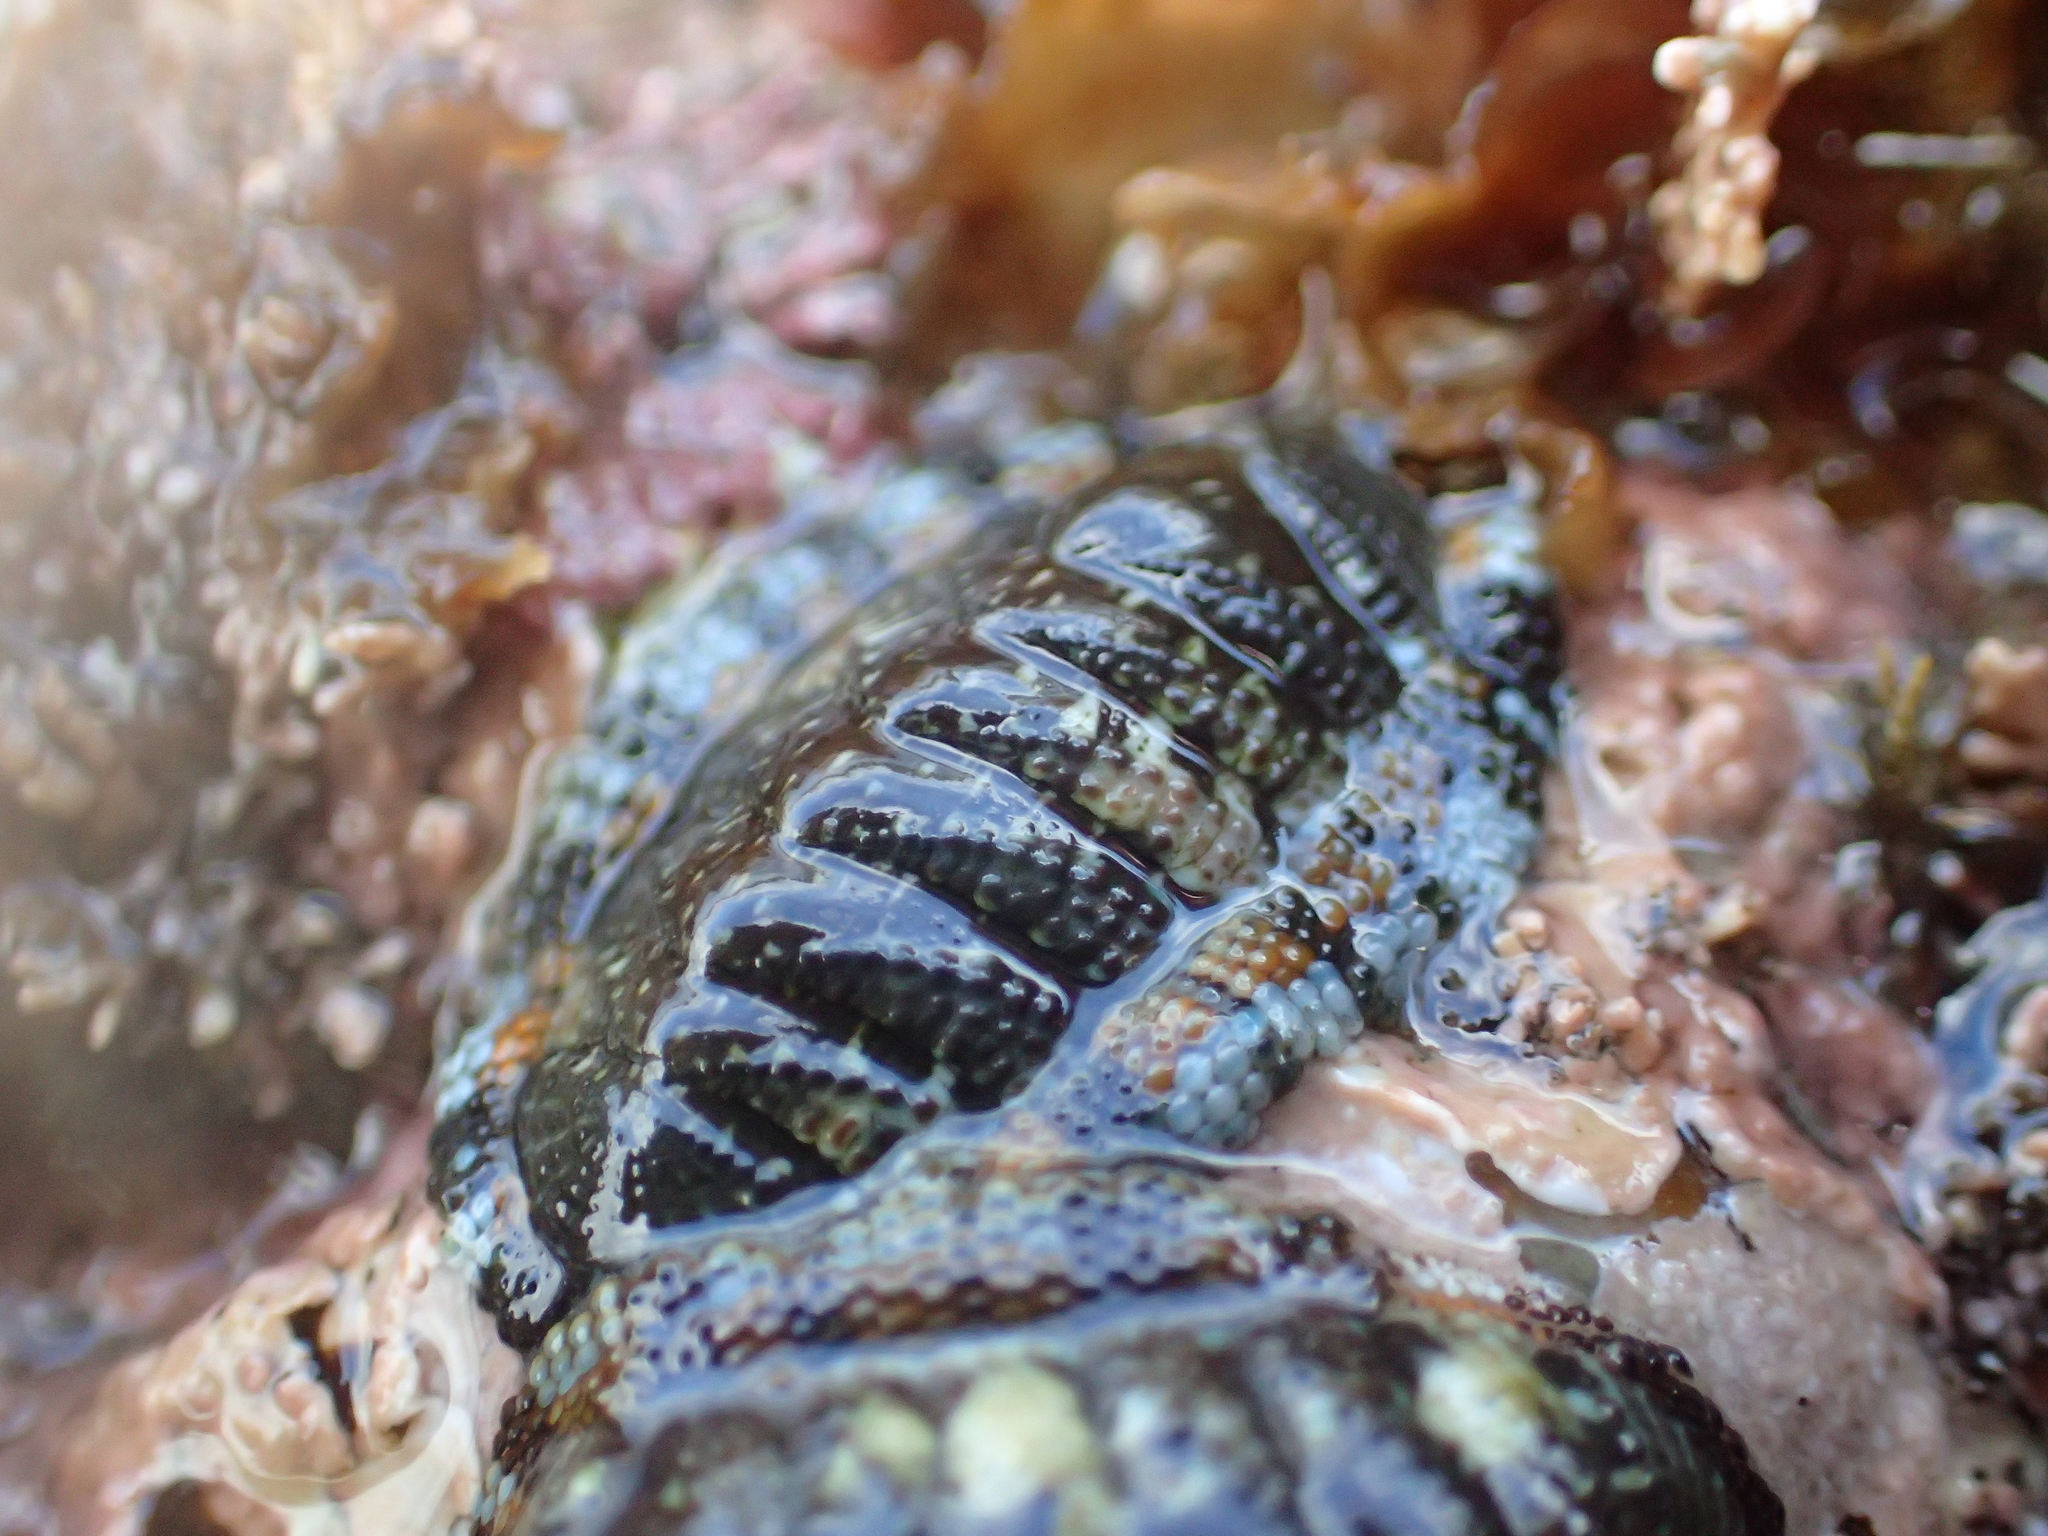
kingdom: Animalia
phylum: Mollusca
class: Polyplacophora
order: Chitonida
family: Chitonidae
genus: Sypharochiton
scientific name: Sypharochiton sinclairi
